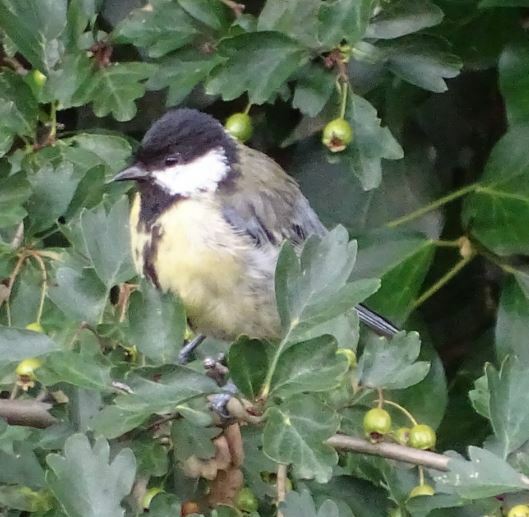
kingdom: Animalia
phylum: Chordata
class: Aves
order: Passeriformes
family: Paridae
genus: Parus
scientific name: Parus major
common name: Great tit
